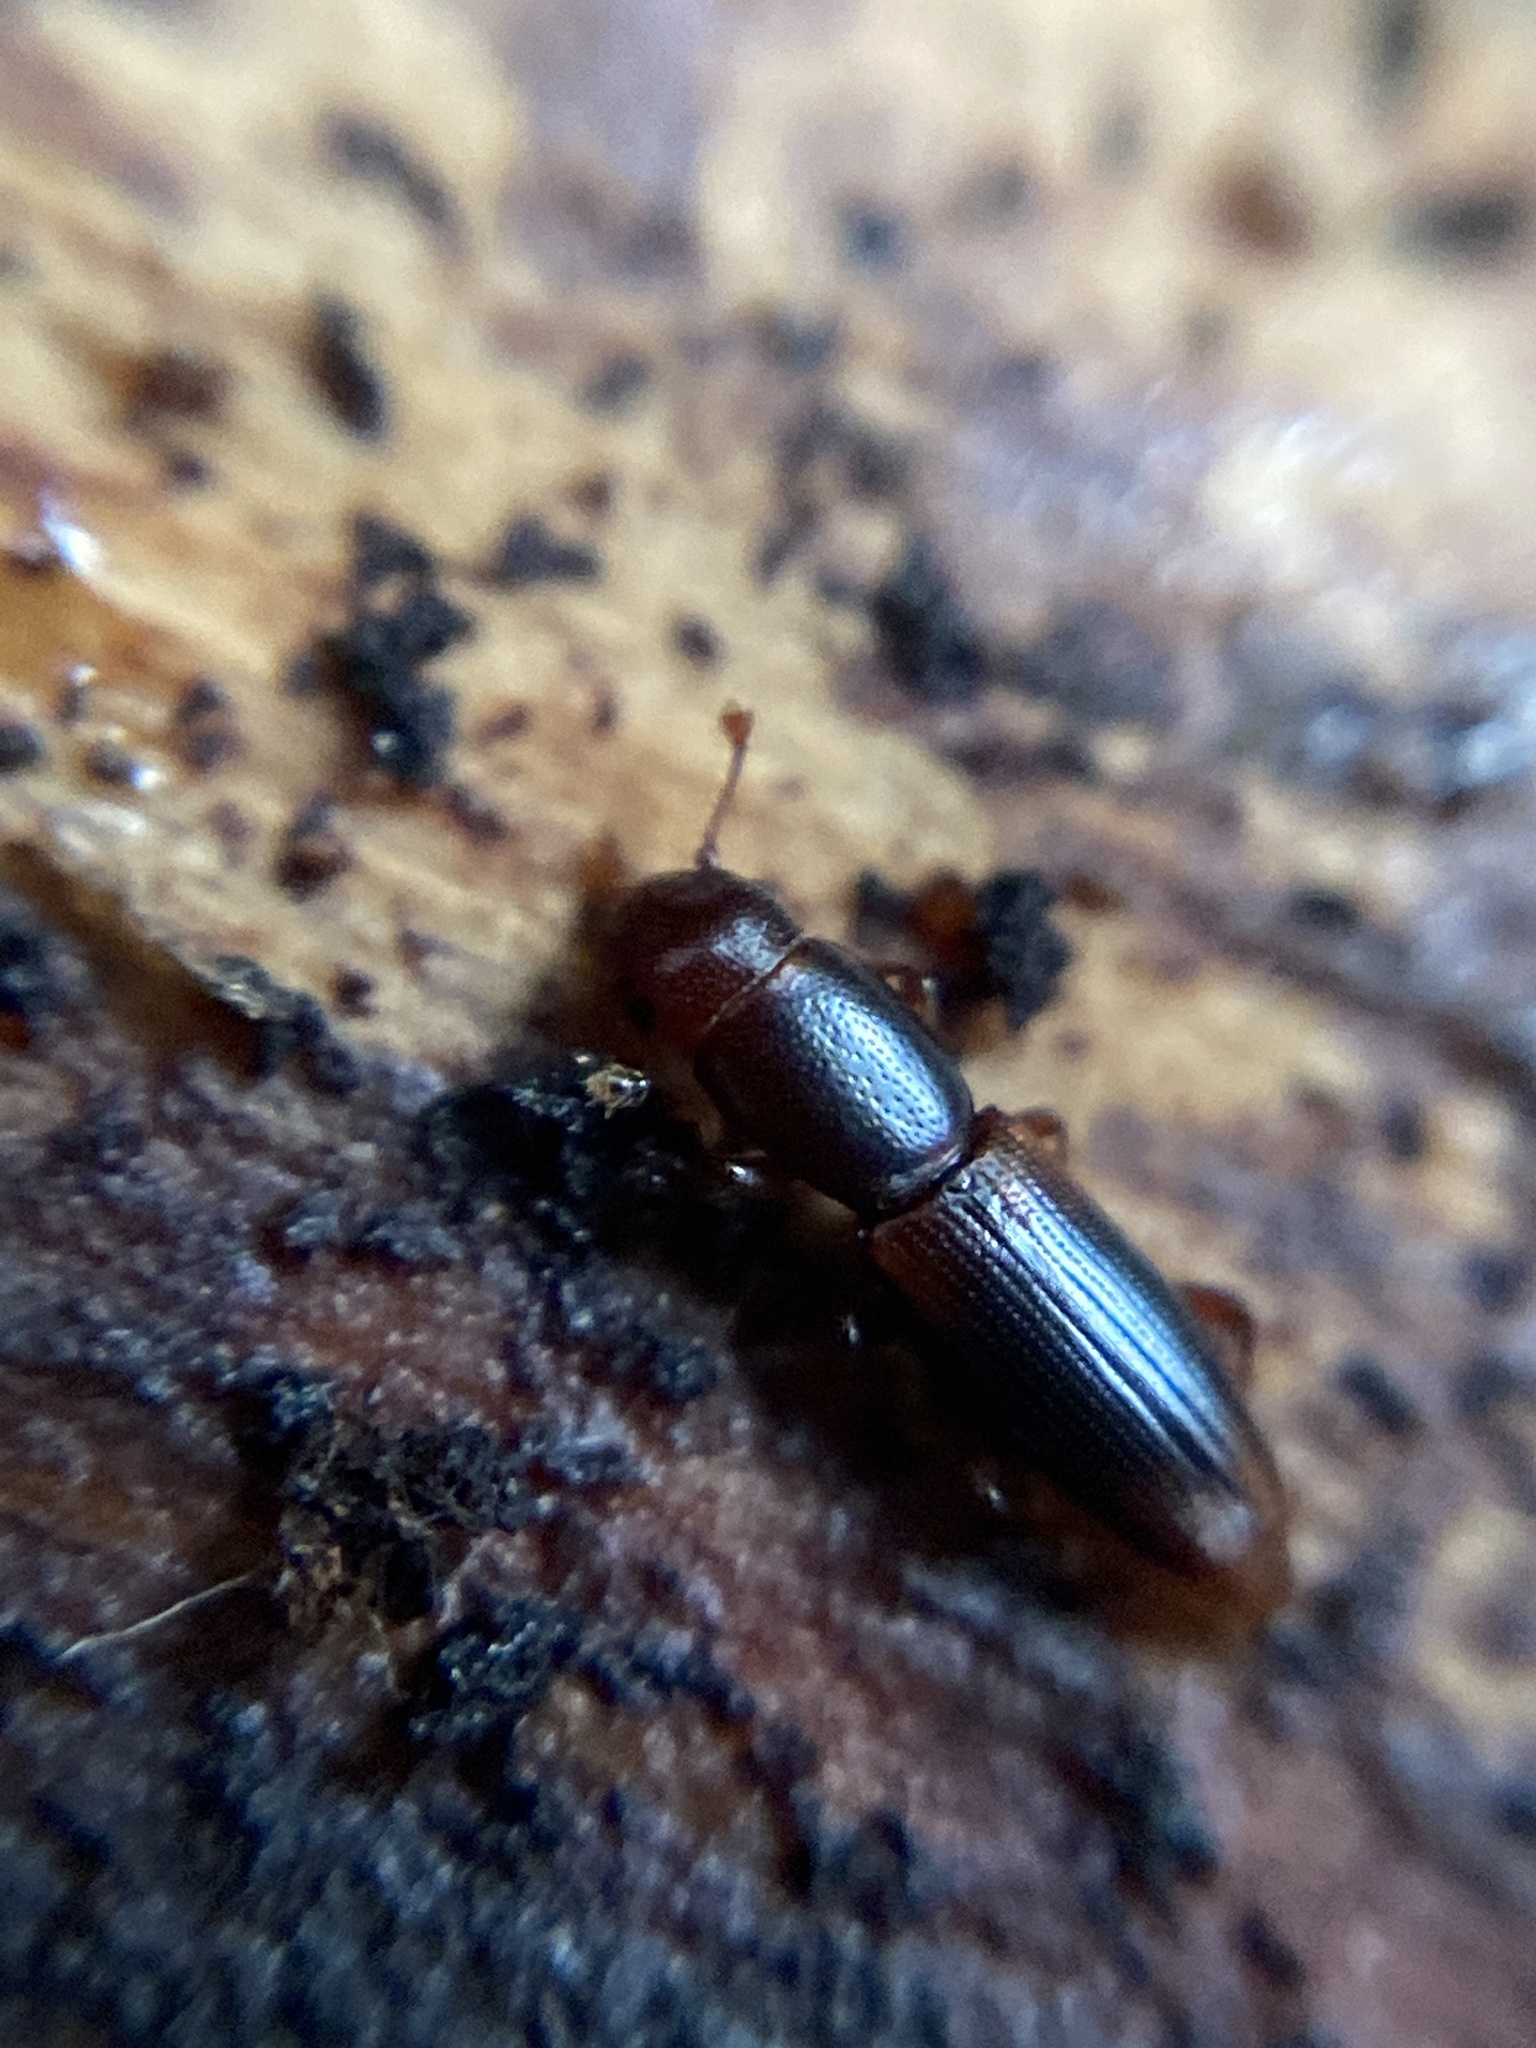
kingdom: Animalia
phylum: Arthropoda
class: Insecta
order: Coleoptera
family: Monotomidae
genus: Rhizophagus
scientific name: Rhizophagus dispar
